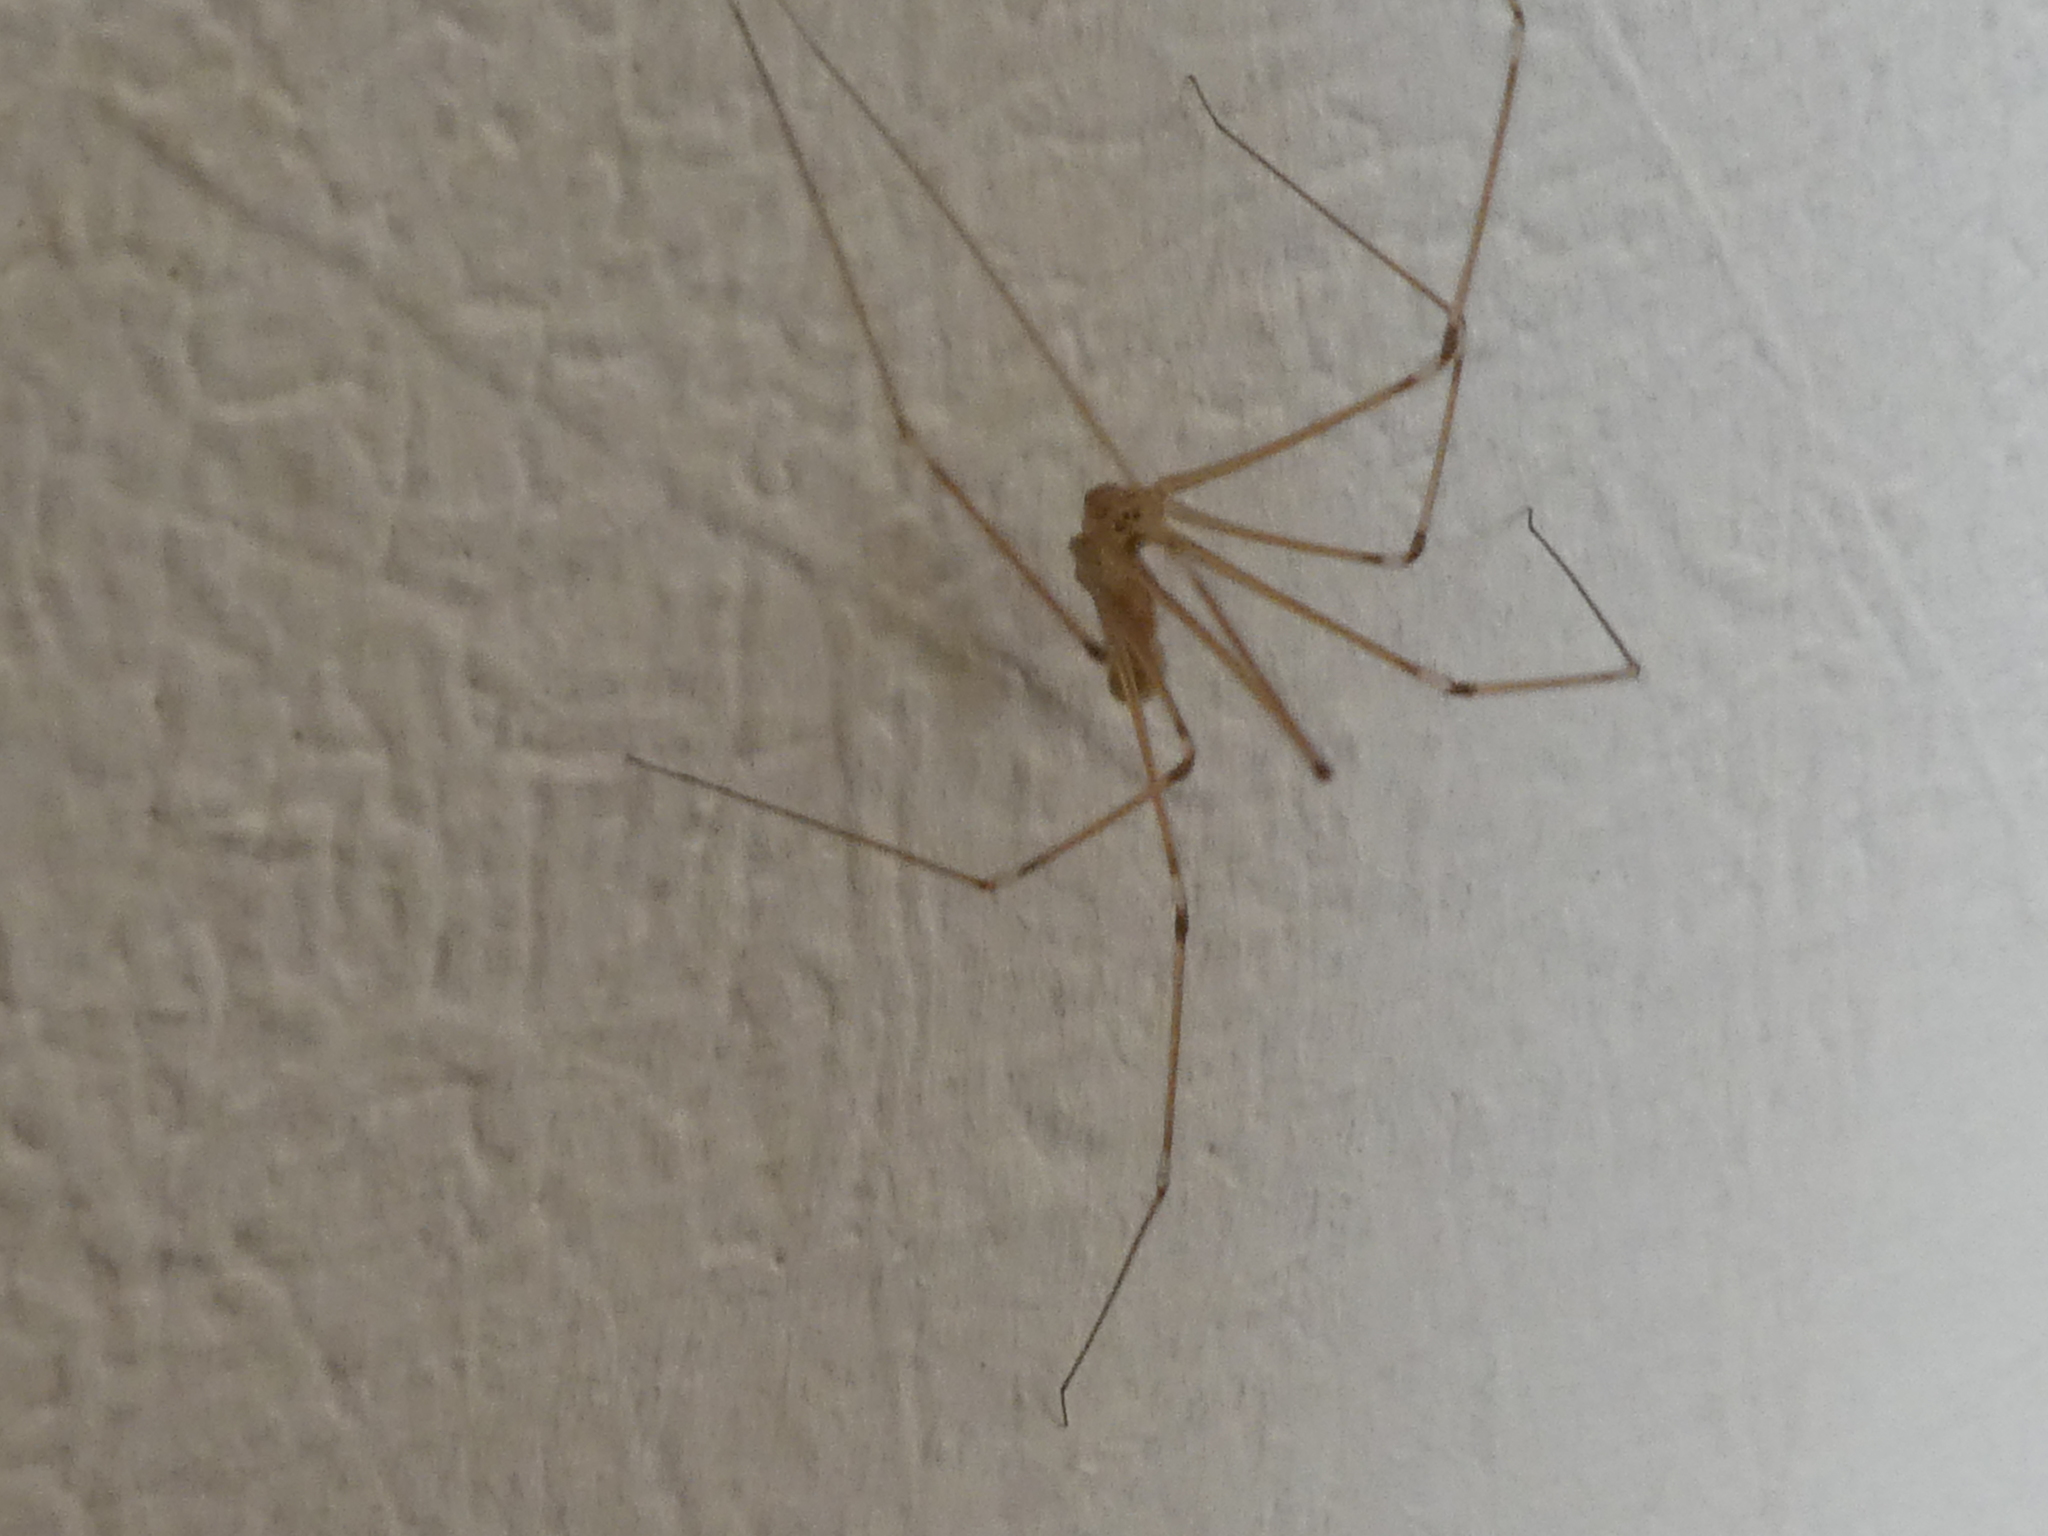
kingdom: Animalia
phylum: Arthropoda
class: Arachnida
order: Araneae
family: Pholcidae
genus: Pholcus
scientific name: Pholcus phalangioides
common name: Longbodied cellar spider
